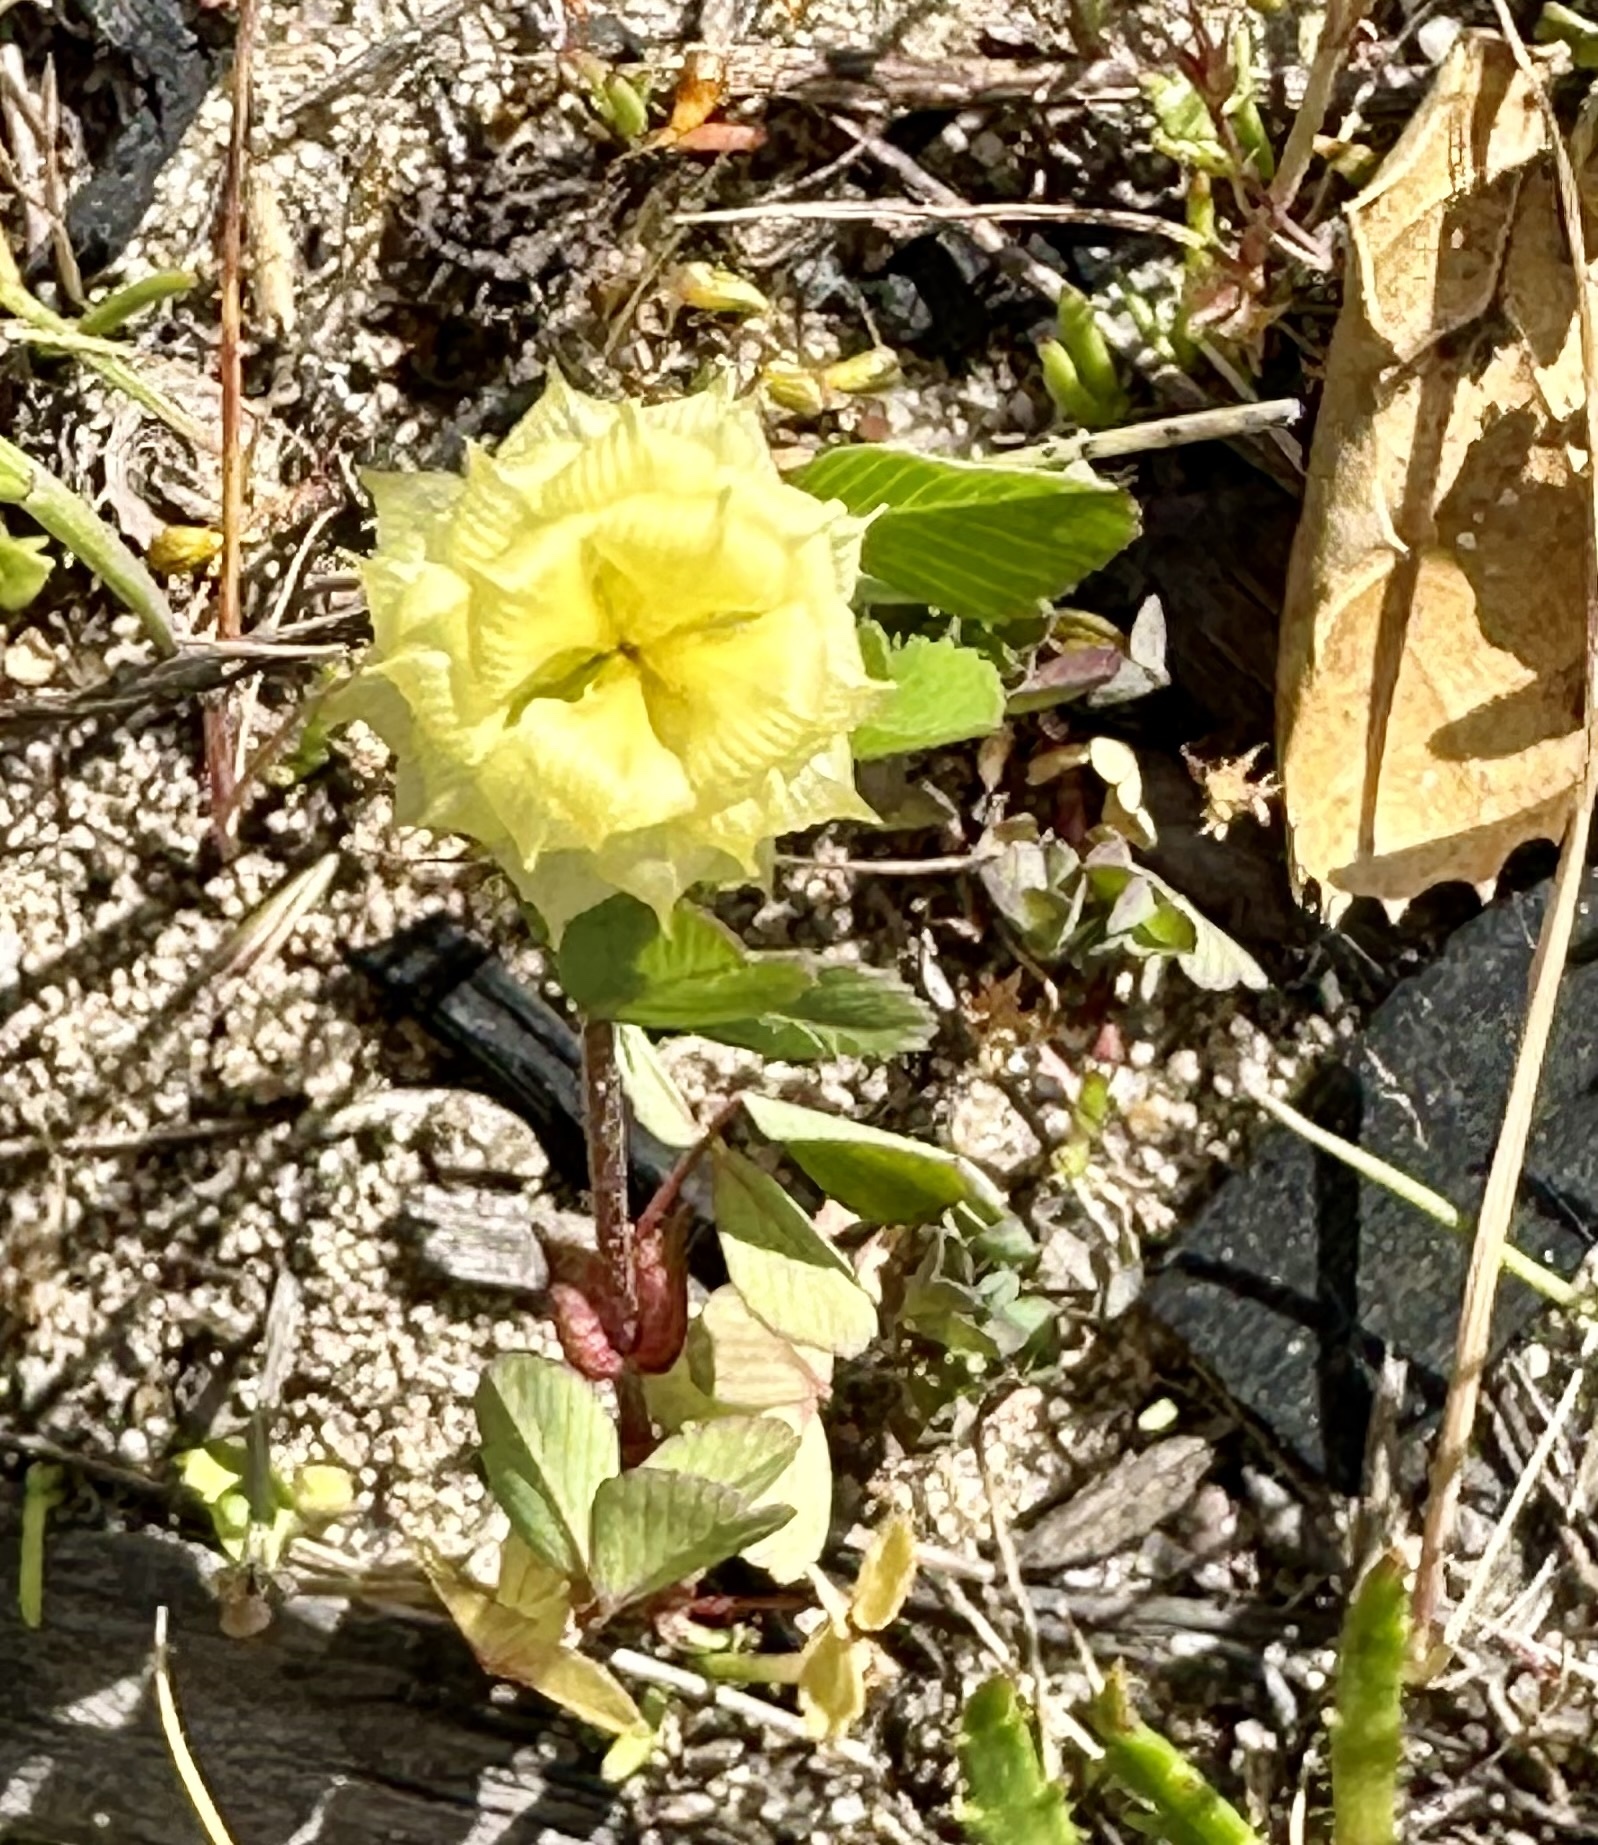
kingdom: Plantae
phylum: Tracheophyta
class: Magnoliopsida
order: Fabales
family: Fabaceae
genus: Trifolium
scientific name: Trifolium campestre
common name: Field clover
